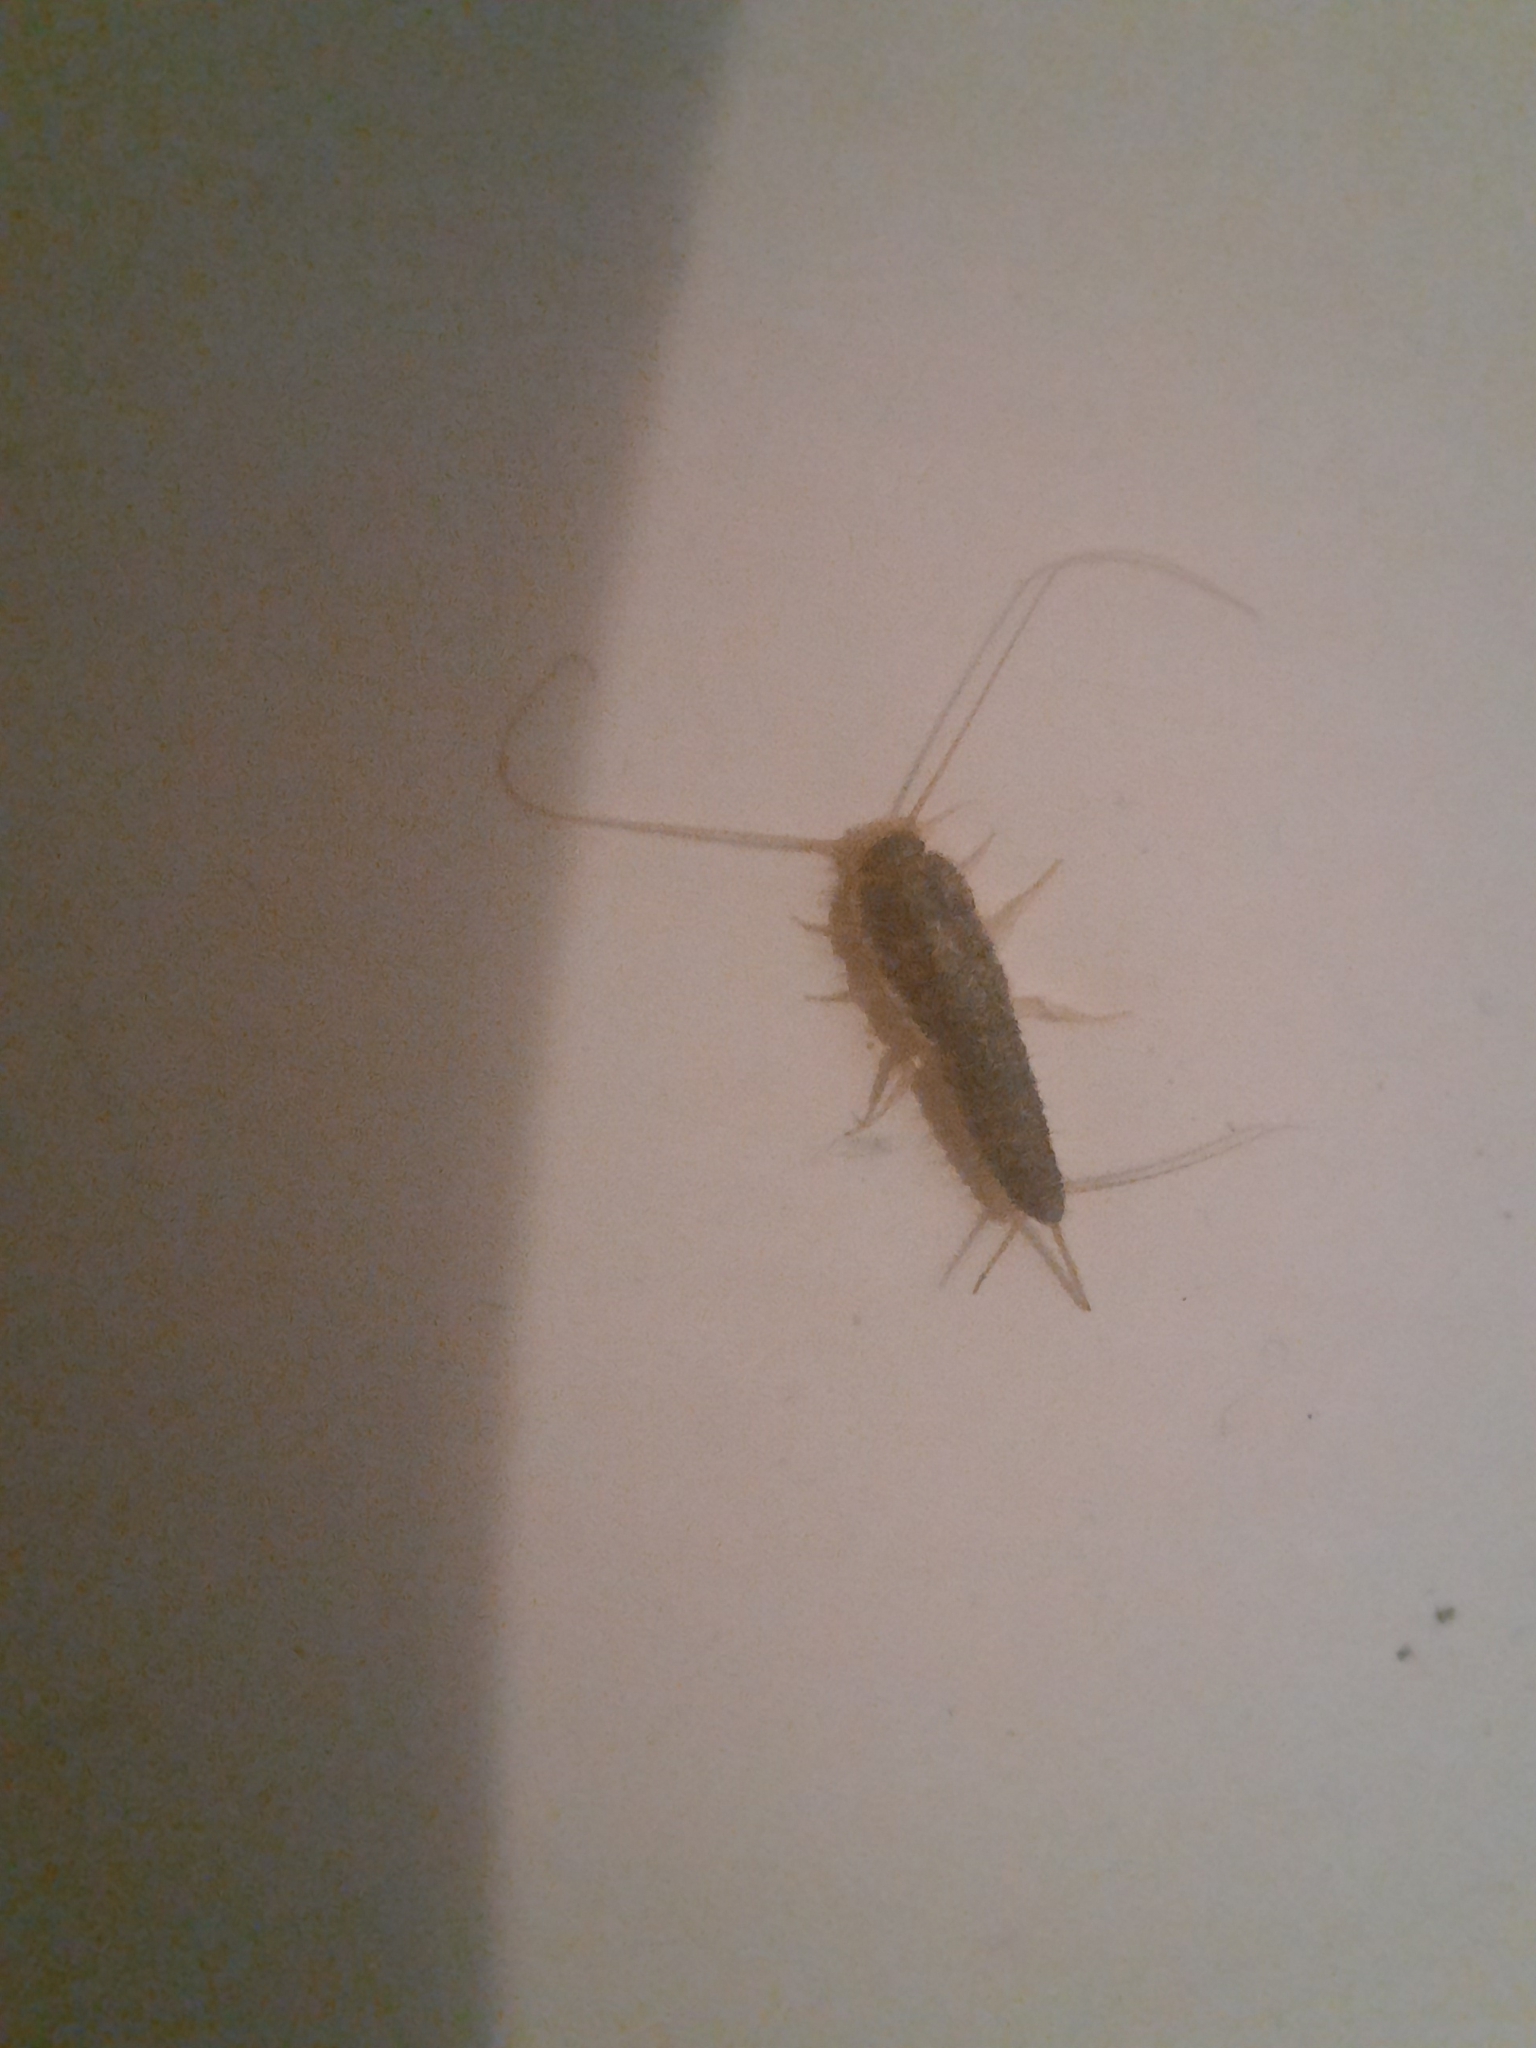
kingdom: Animalia
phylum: Arthropoda
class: Insecta
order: Zygentoma
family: Lepismatidae
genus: Ctenolepisma
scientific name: Ctenolepisma longicaudatum
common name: Silverfish
